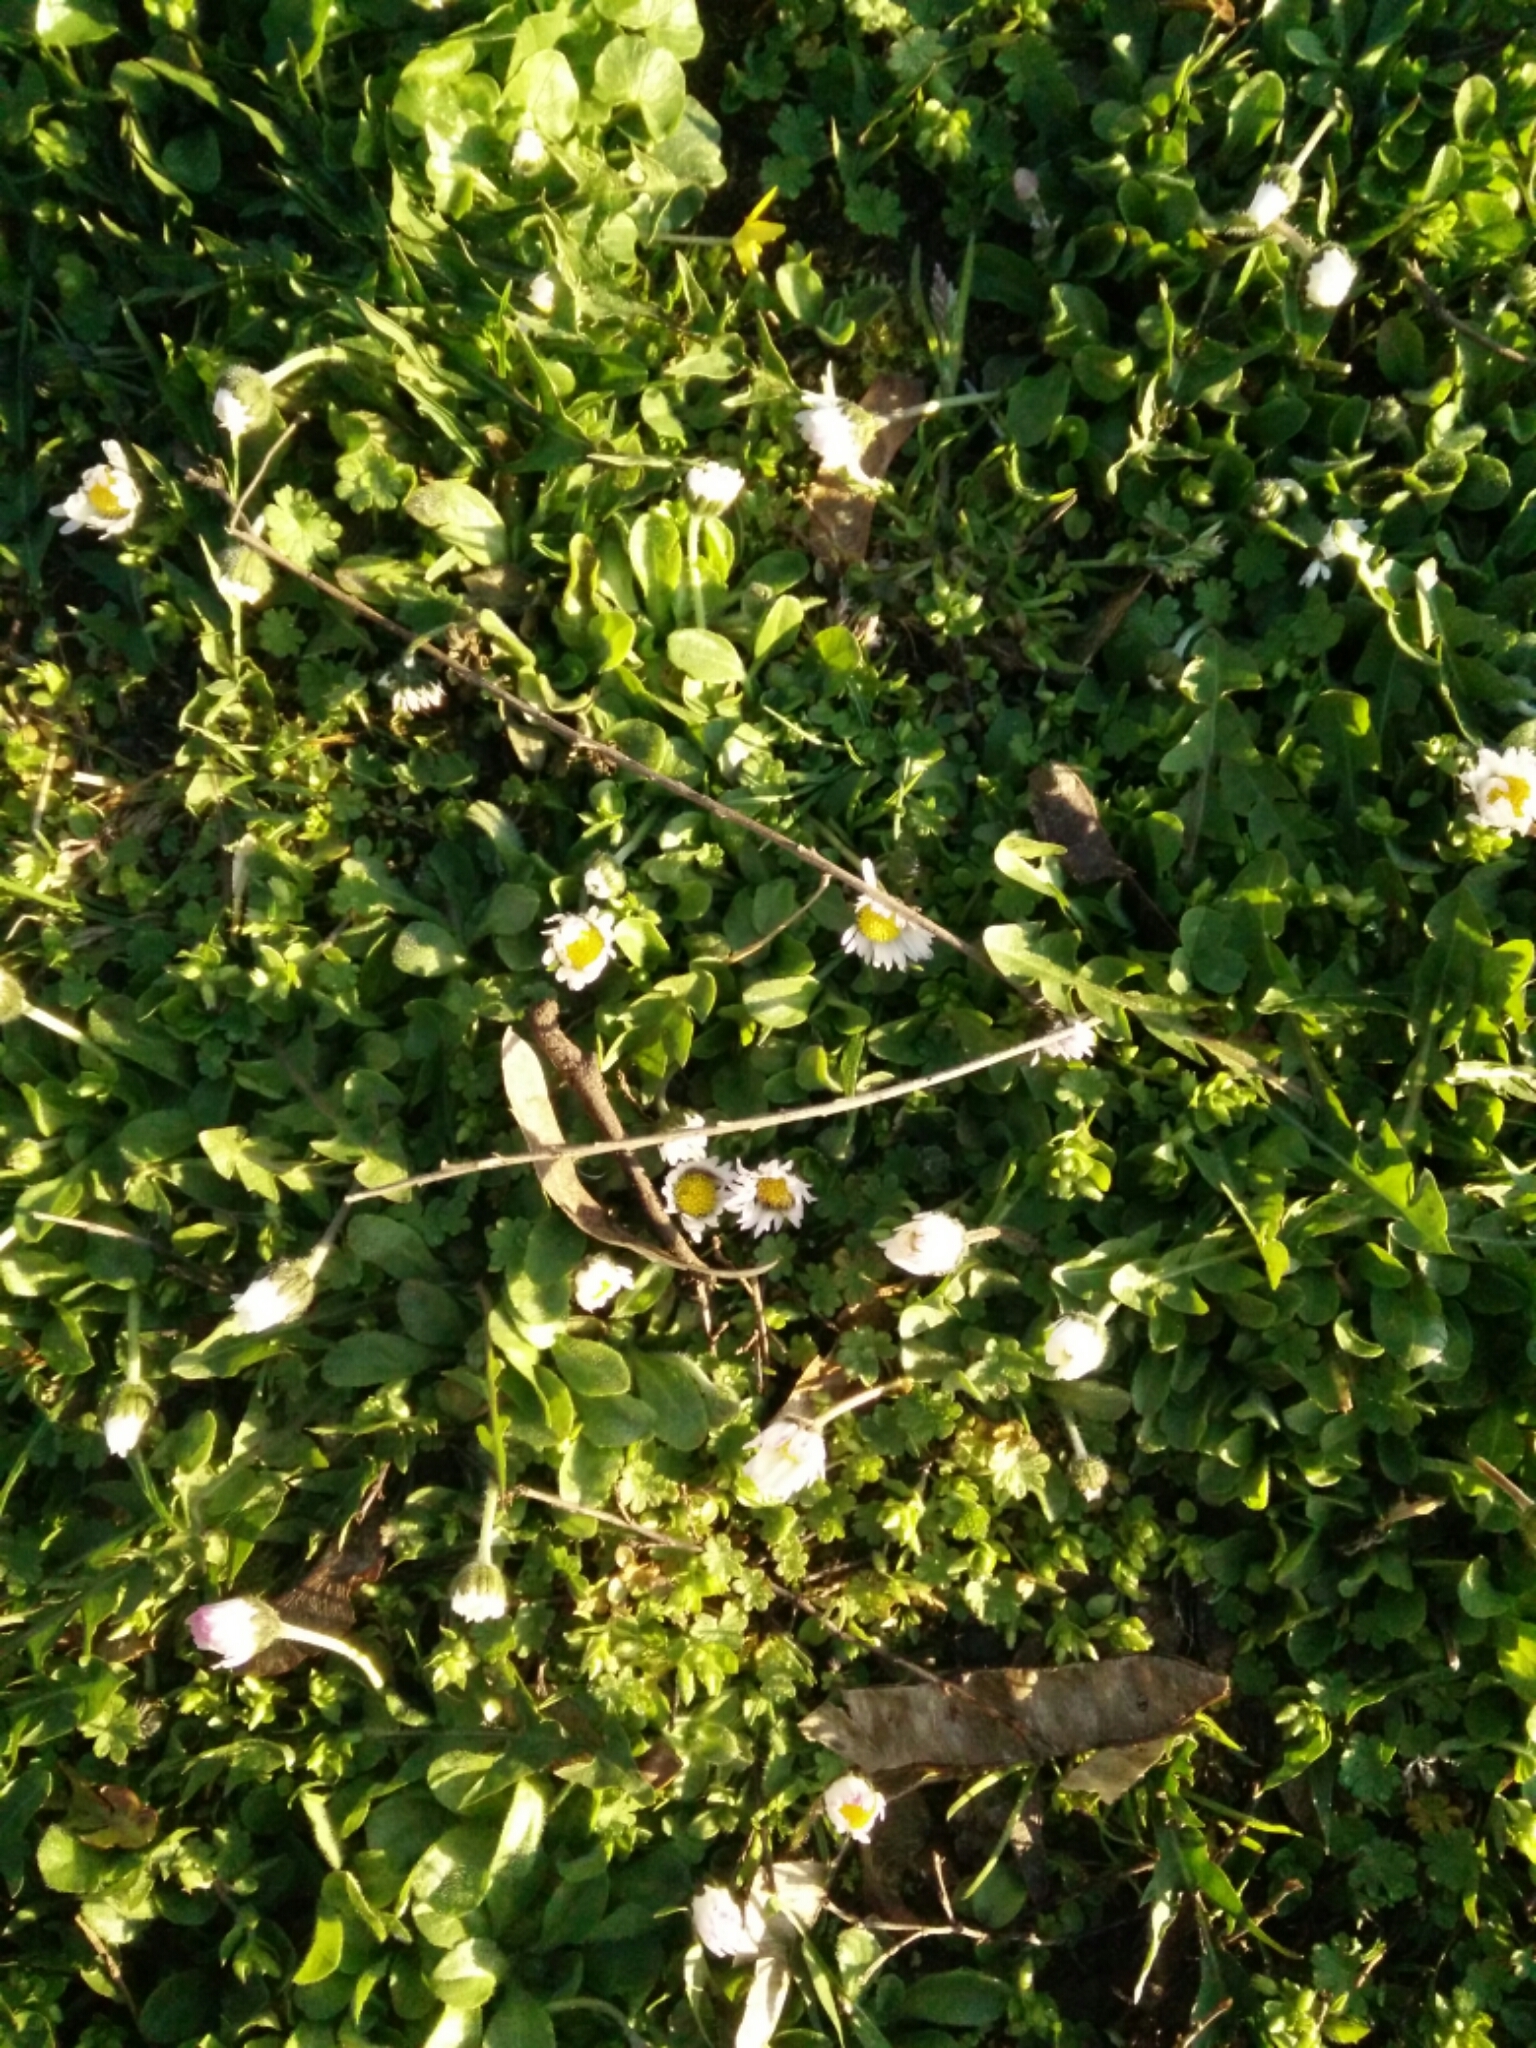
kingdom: Plantae
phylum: Tracheophyta
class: Magnoliopsida
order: Asterales
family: Asteraceae
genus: Bellis
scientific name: Bellis perennis
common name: Lawndaisy
